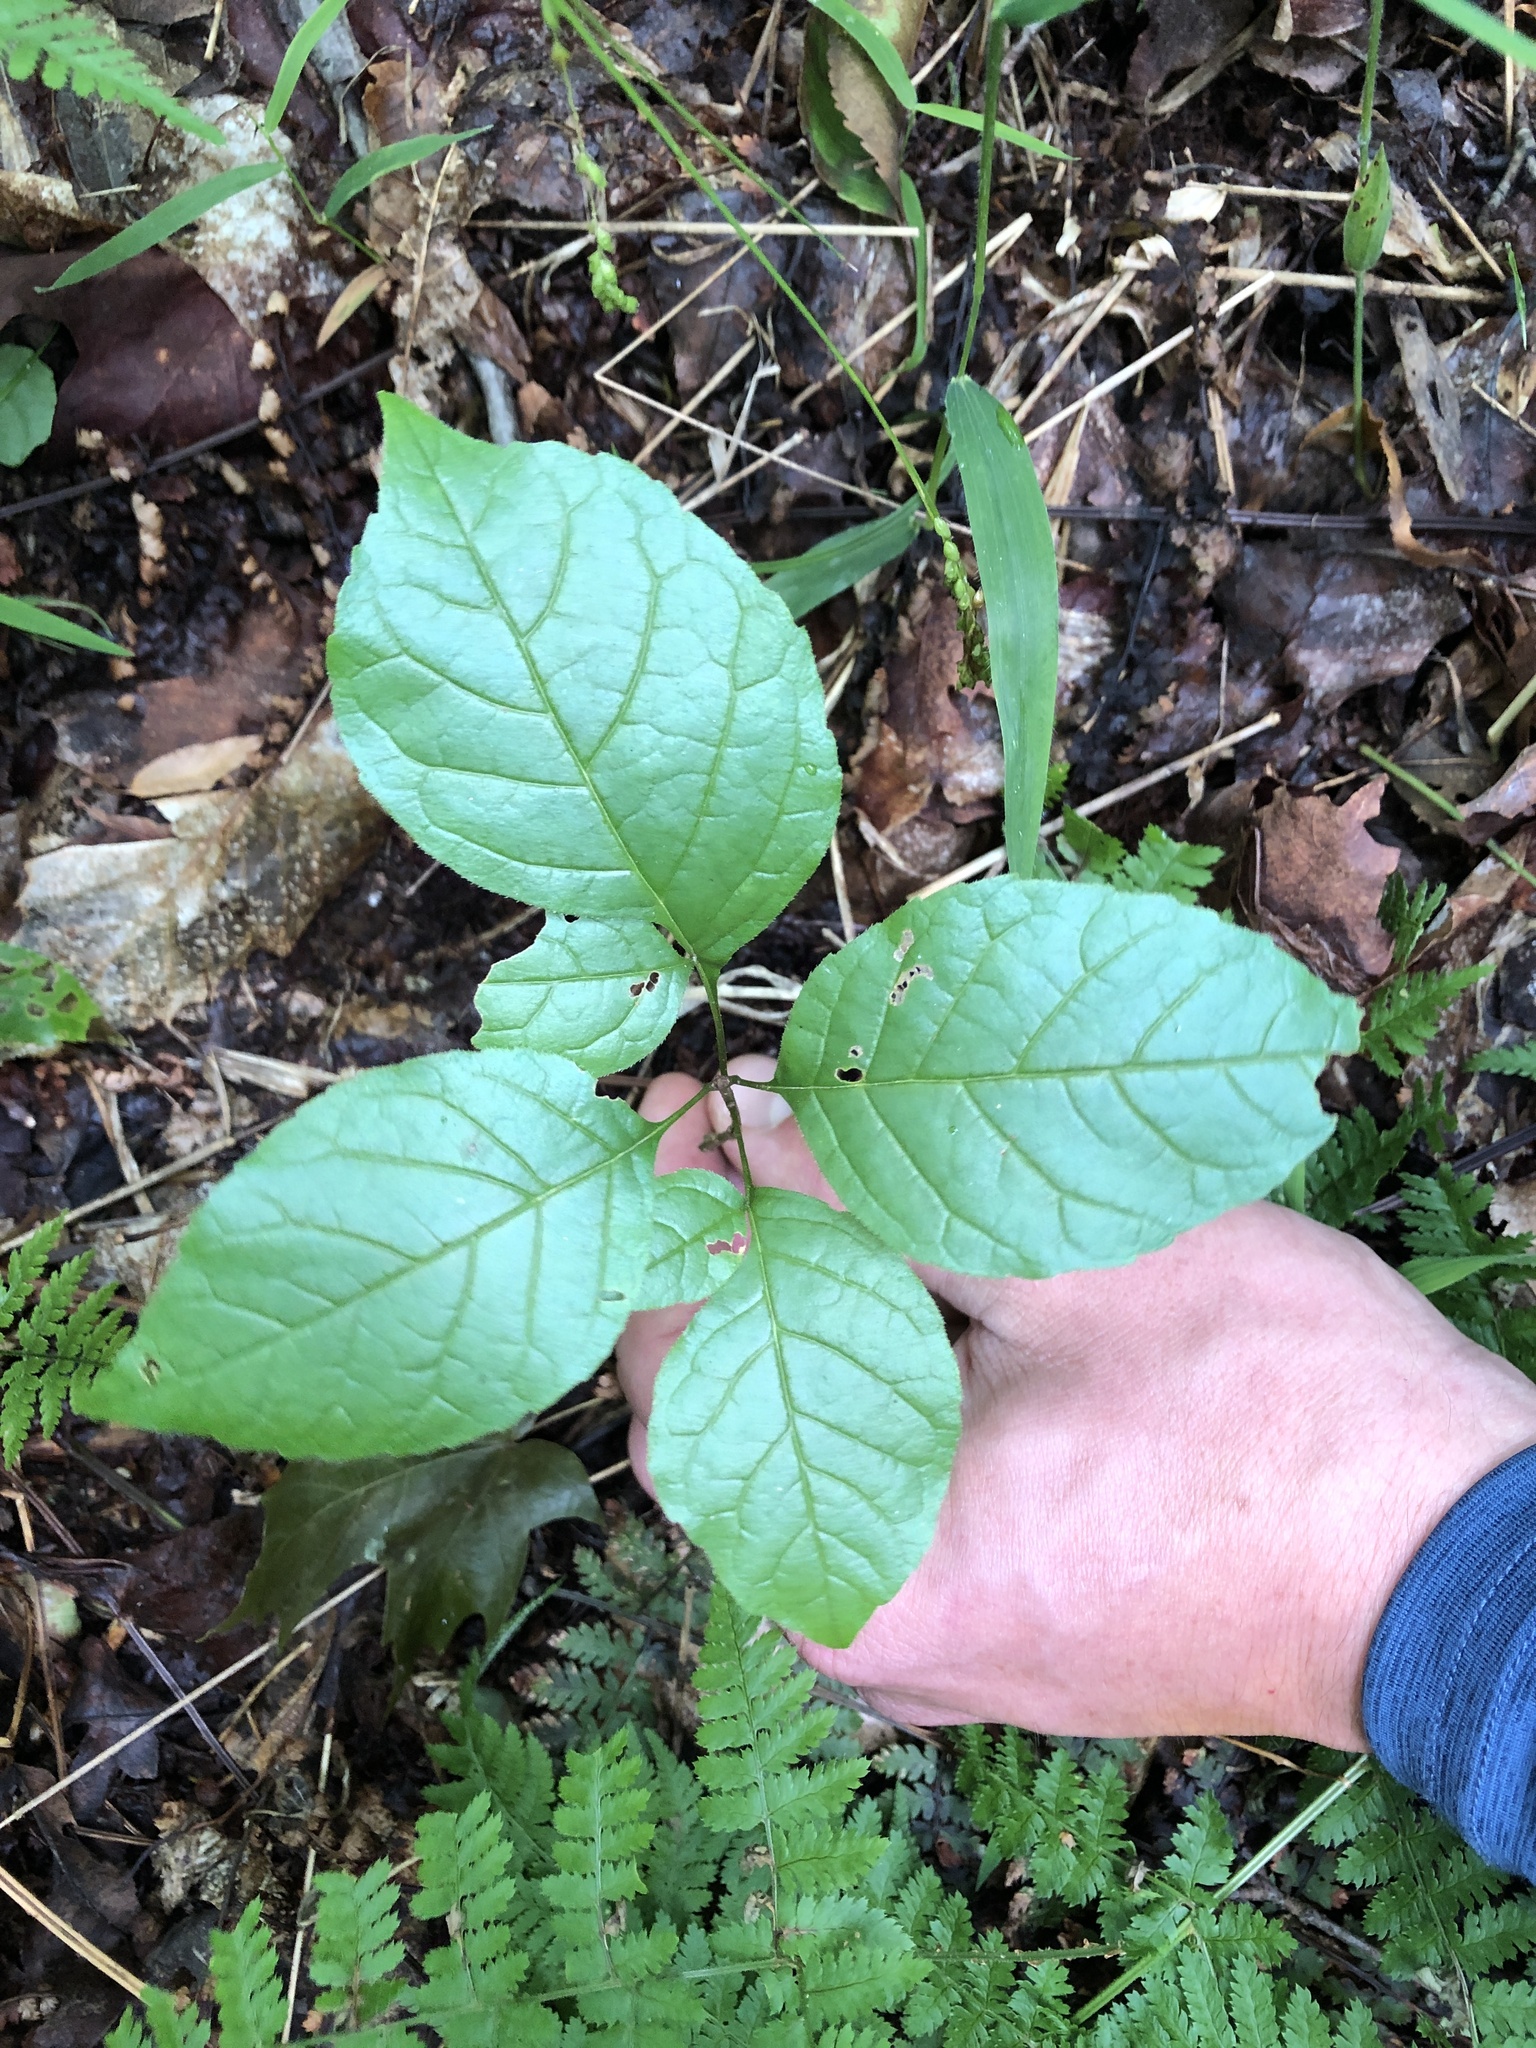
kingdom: Plantae
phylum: Tracheophyta
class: Magnoliopsida
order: Lamiales
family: Oleaceae
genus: Fraxinus
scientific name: Fraxinus
